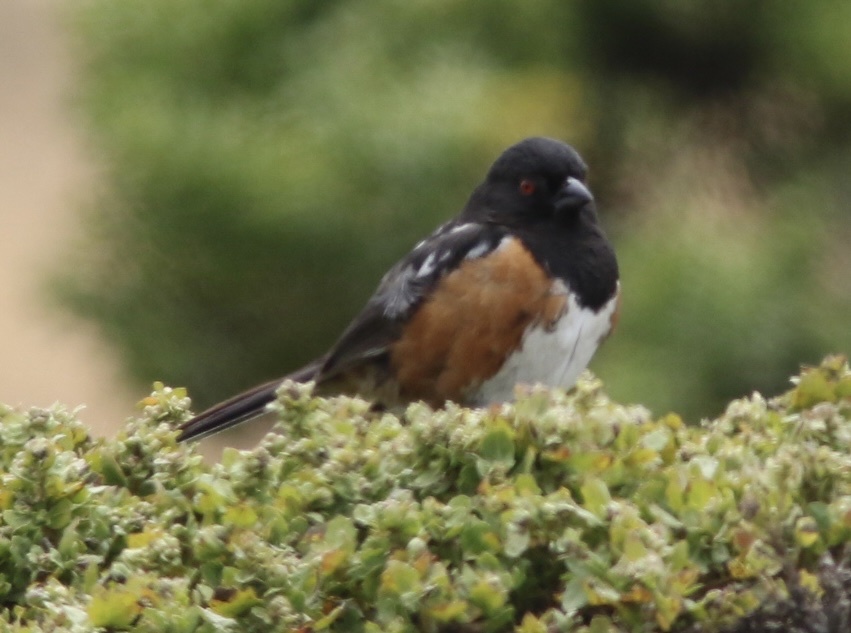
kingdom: Animalia
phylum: Chordata
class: Aves
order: Passeriformes
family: Passerellidae
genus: Pipilo
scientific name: Pipilo maculatus
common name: Spotted towhee
